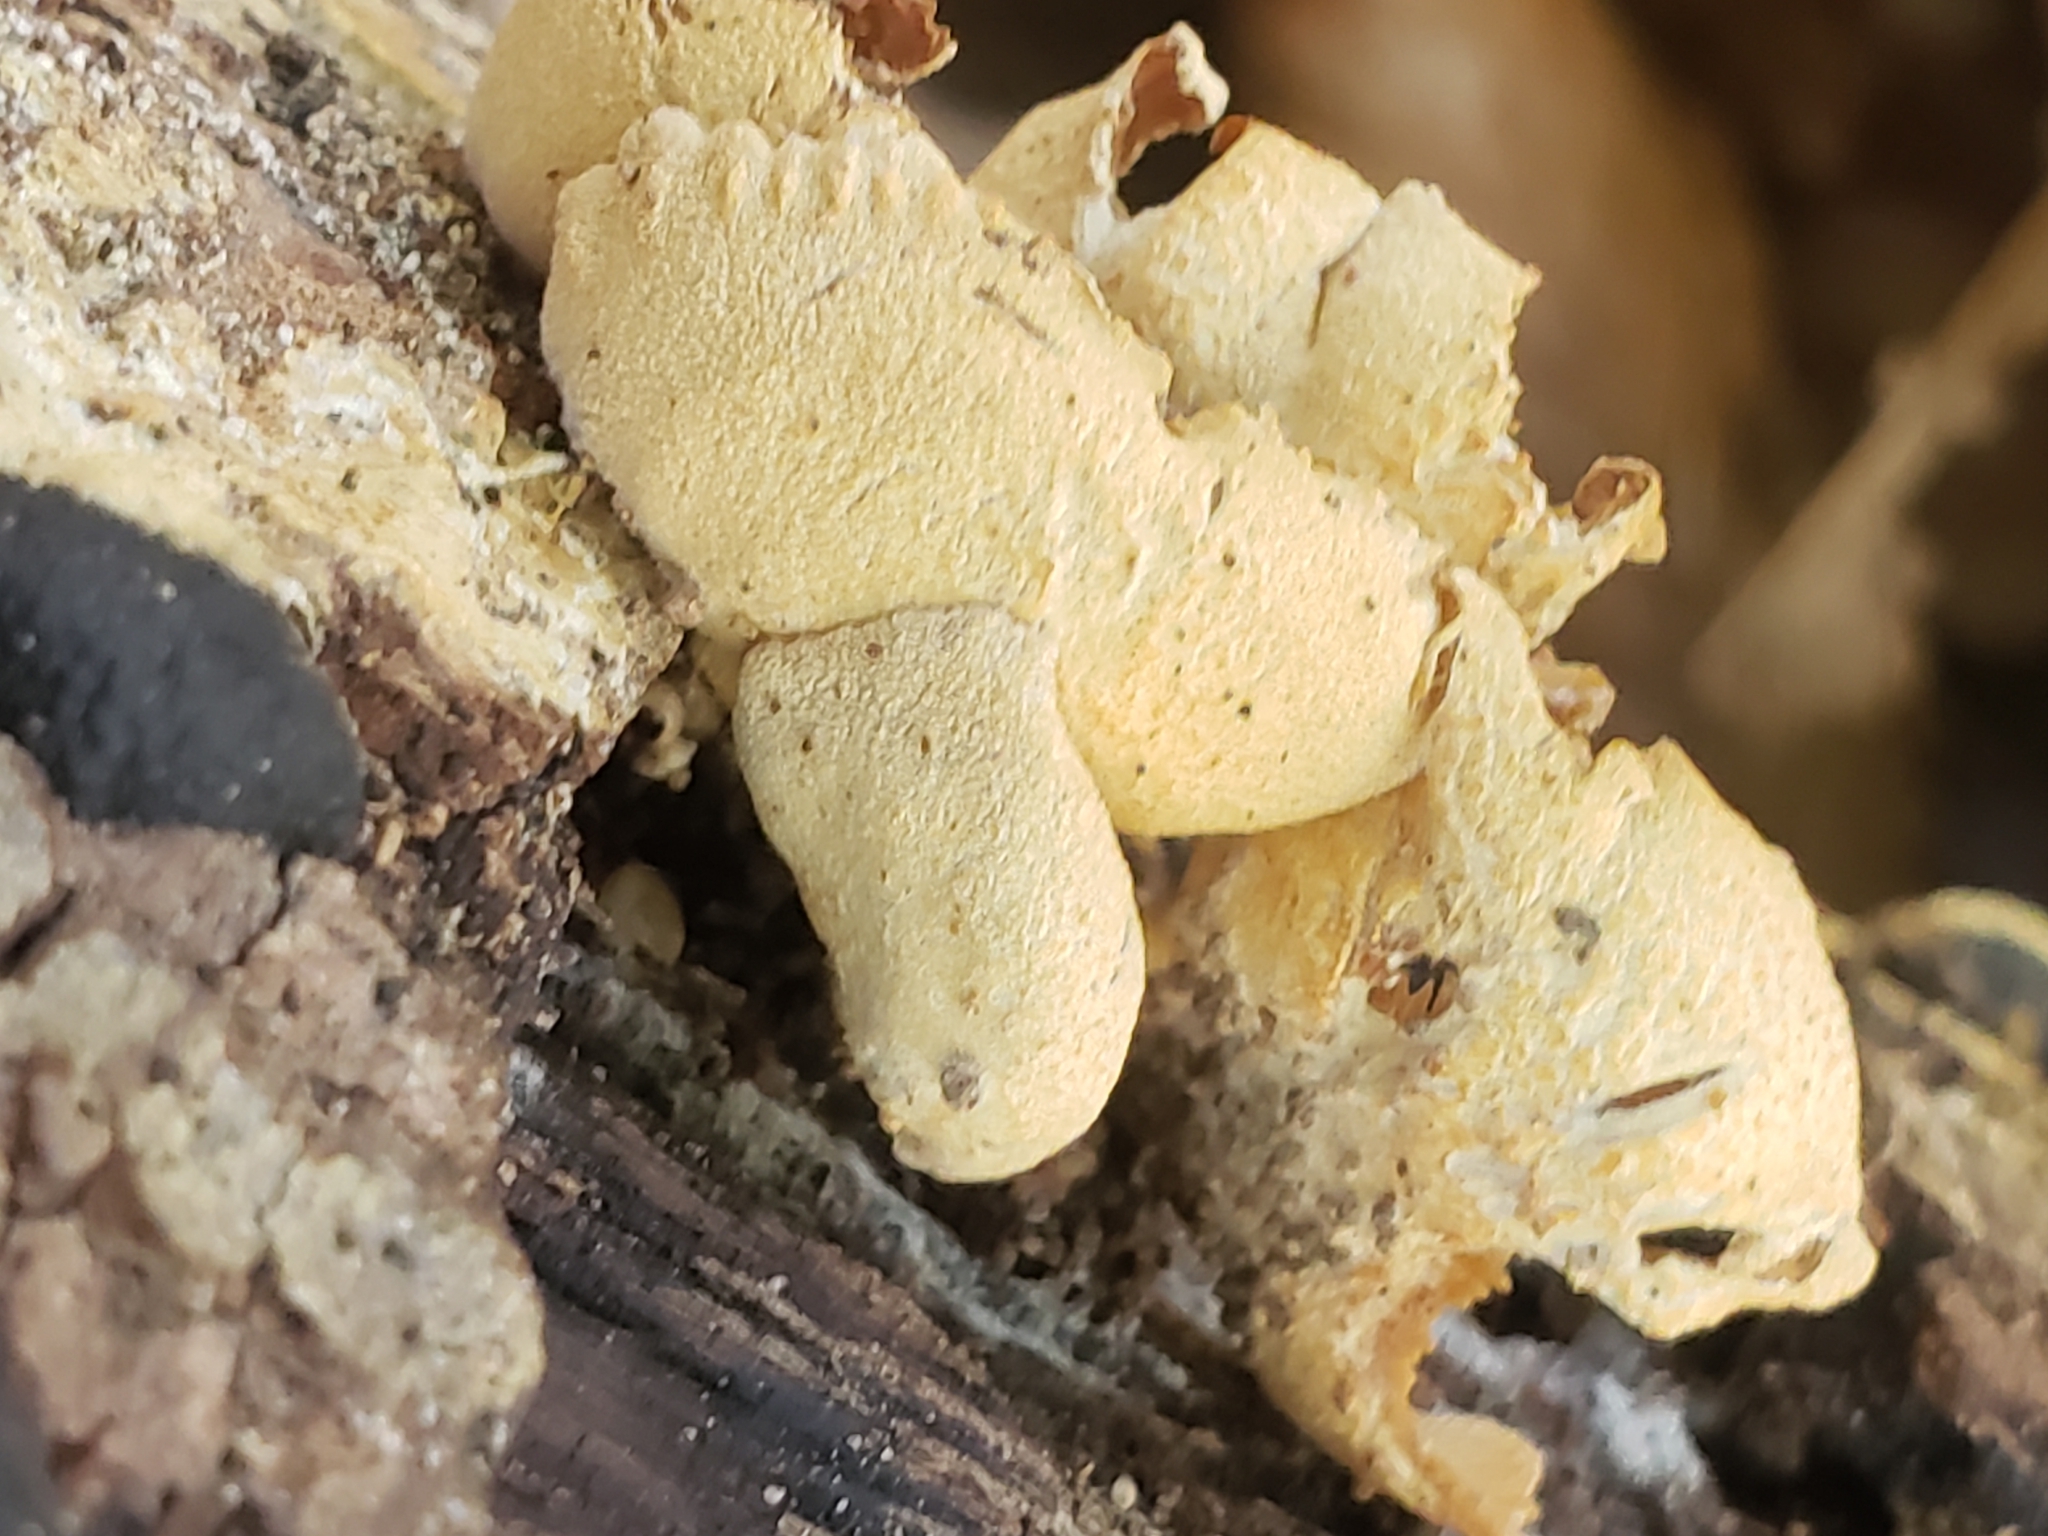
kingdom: Fungi
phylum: Basidiomycota
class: Agaricomycetes
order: Agaricales
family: Mycenaceae
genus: Panellus
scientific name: Panellus stipticus
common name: Bitter oysterling
